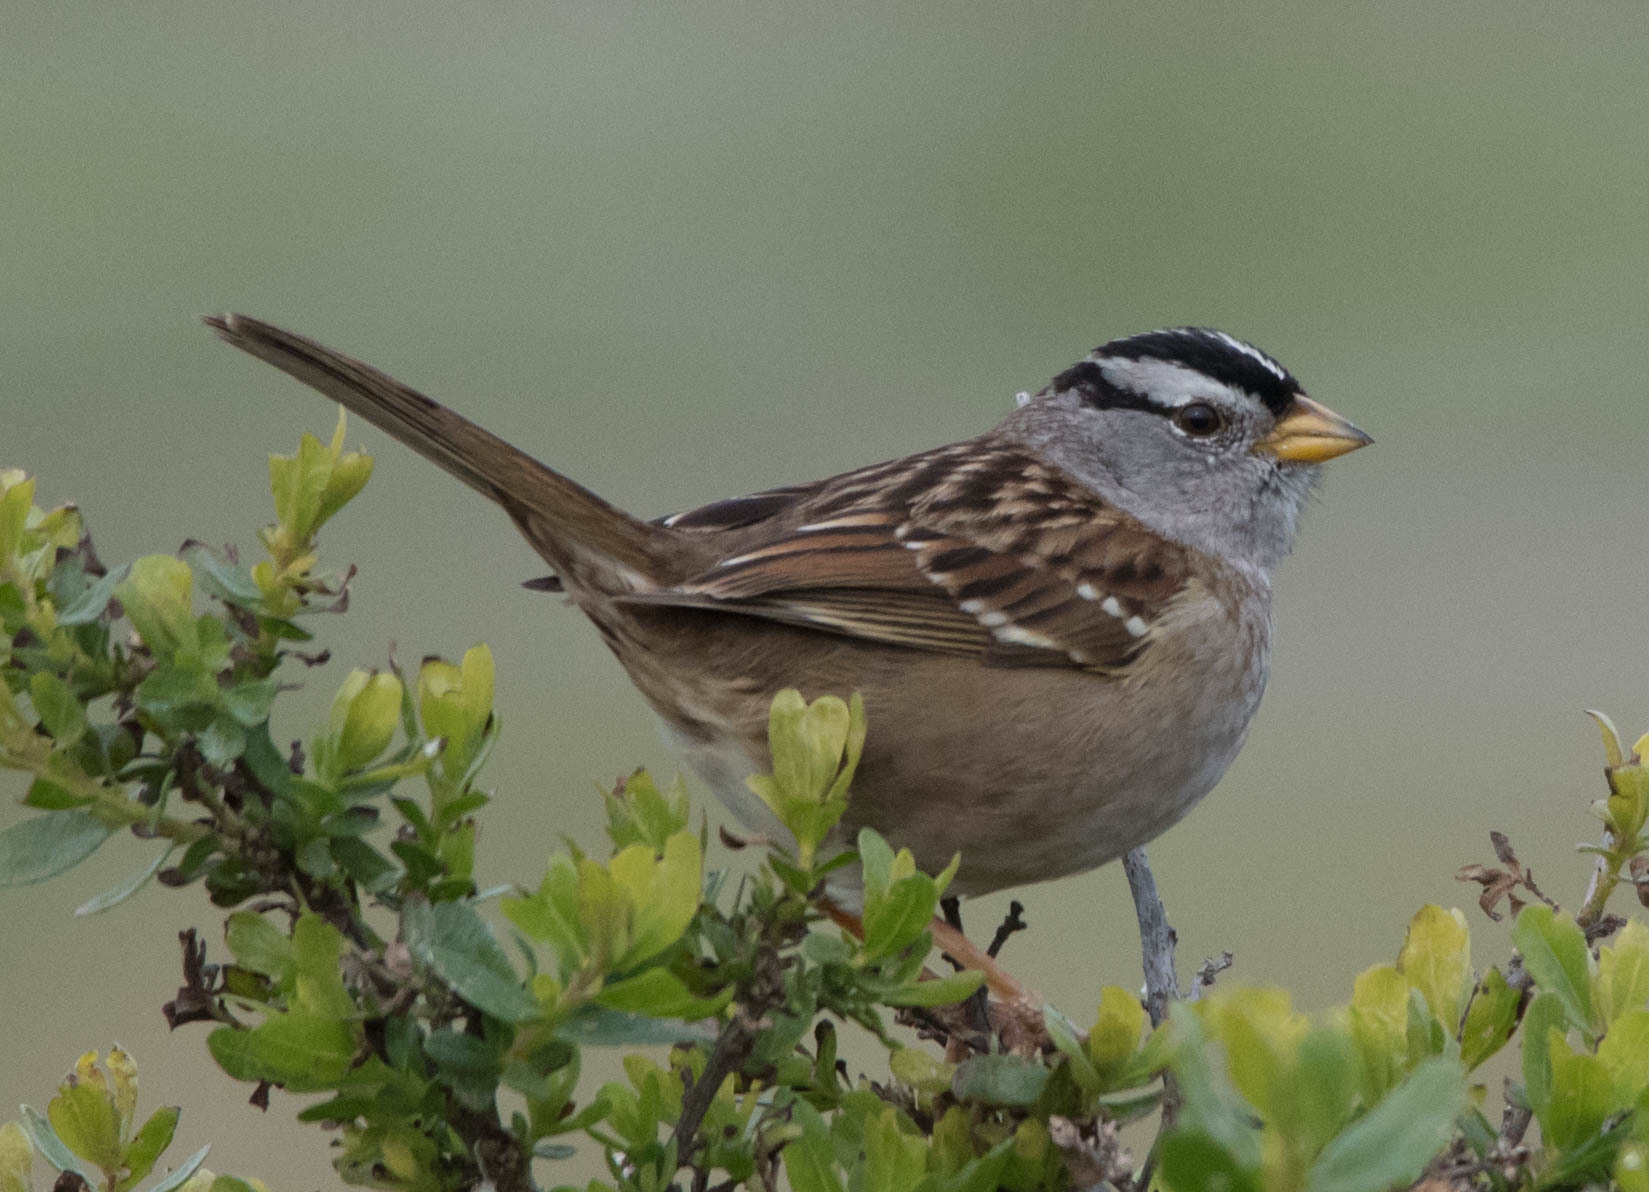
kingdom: Animalia
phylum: Chordata
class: Aves
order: Passeriformes
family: Passerellidae
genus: Zonotrichia
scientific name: Zonotrichia leucophrys
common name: White-crowned sparrow
